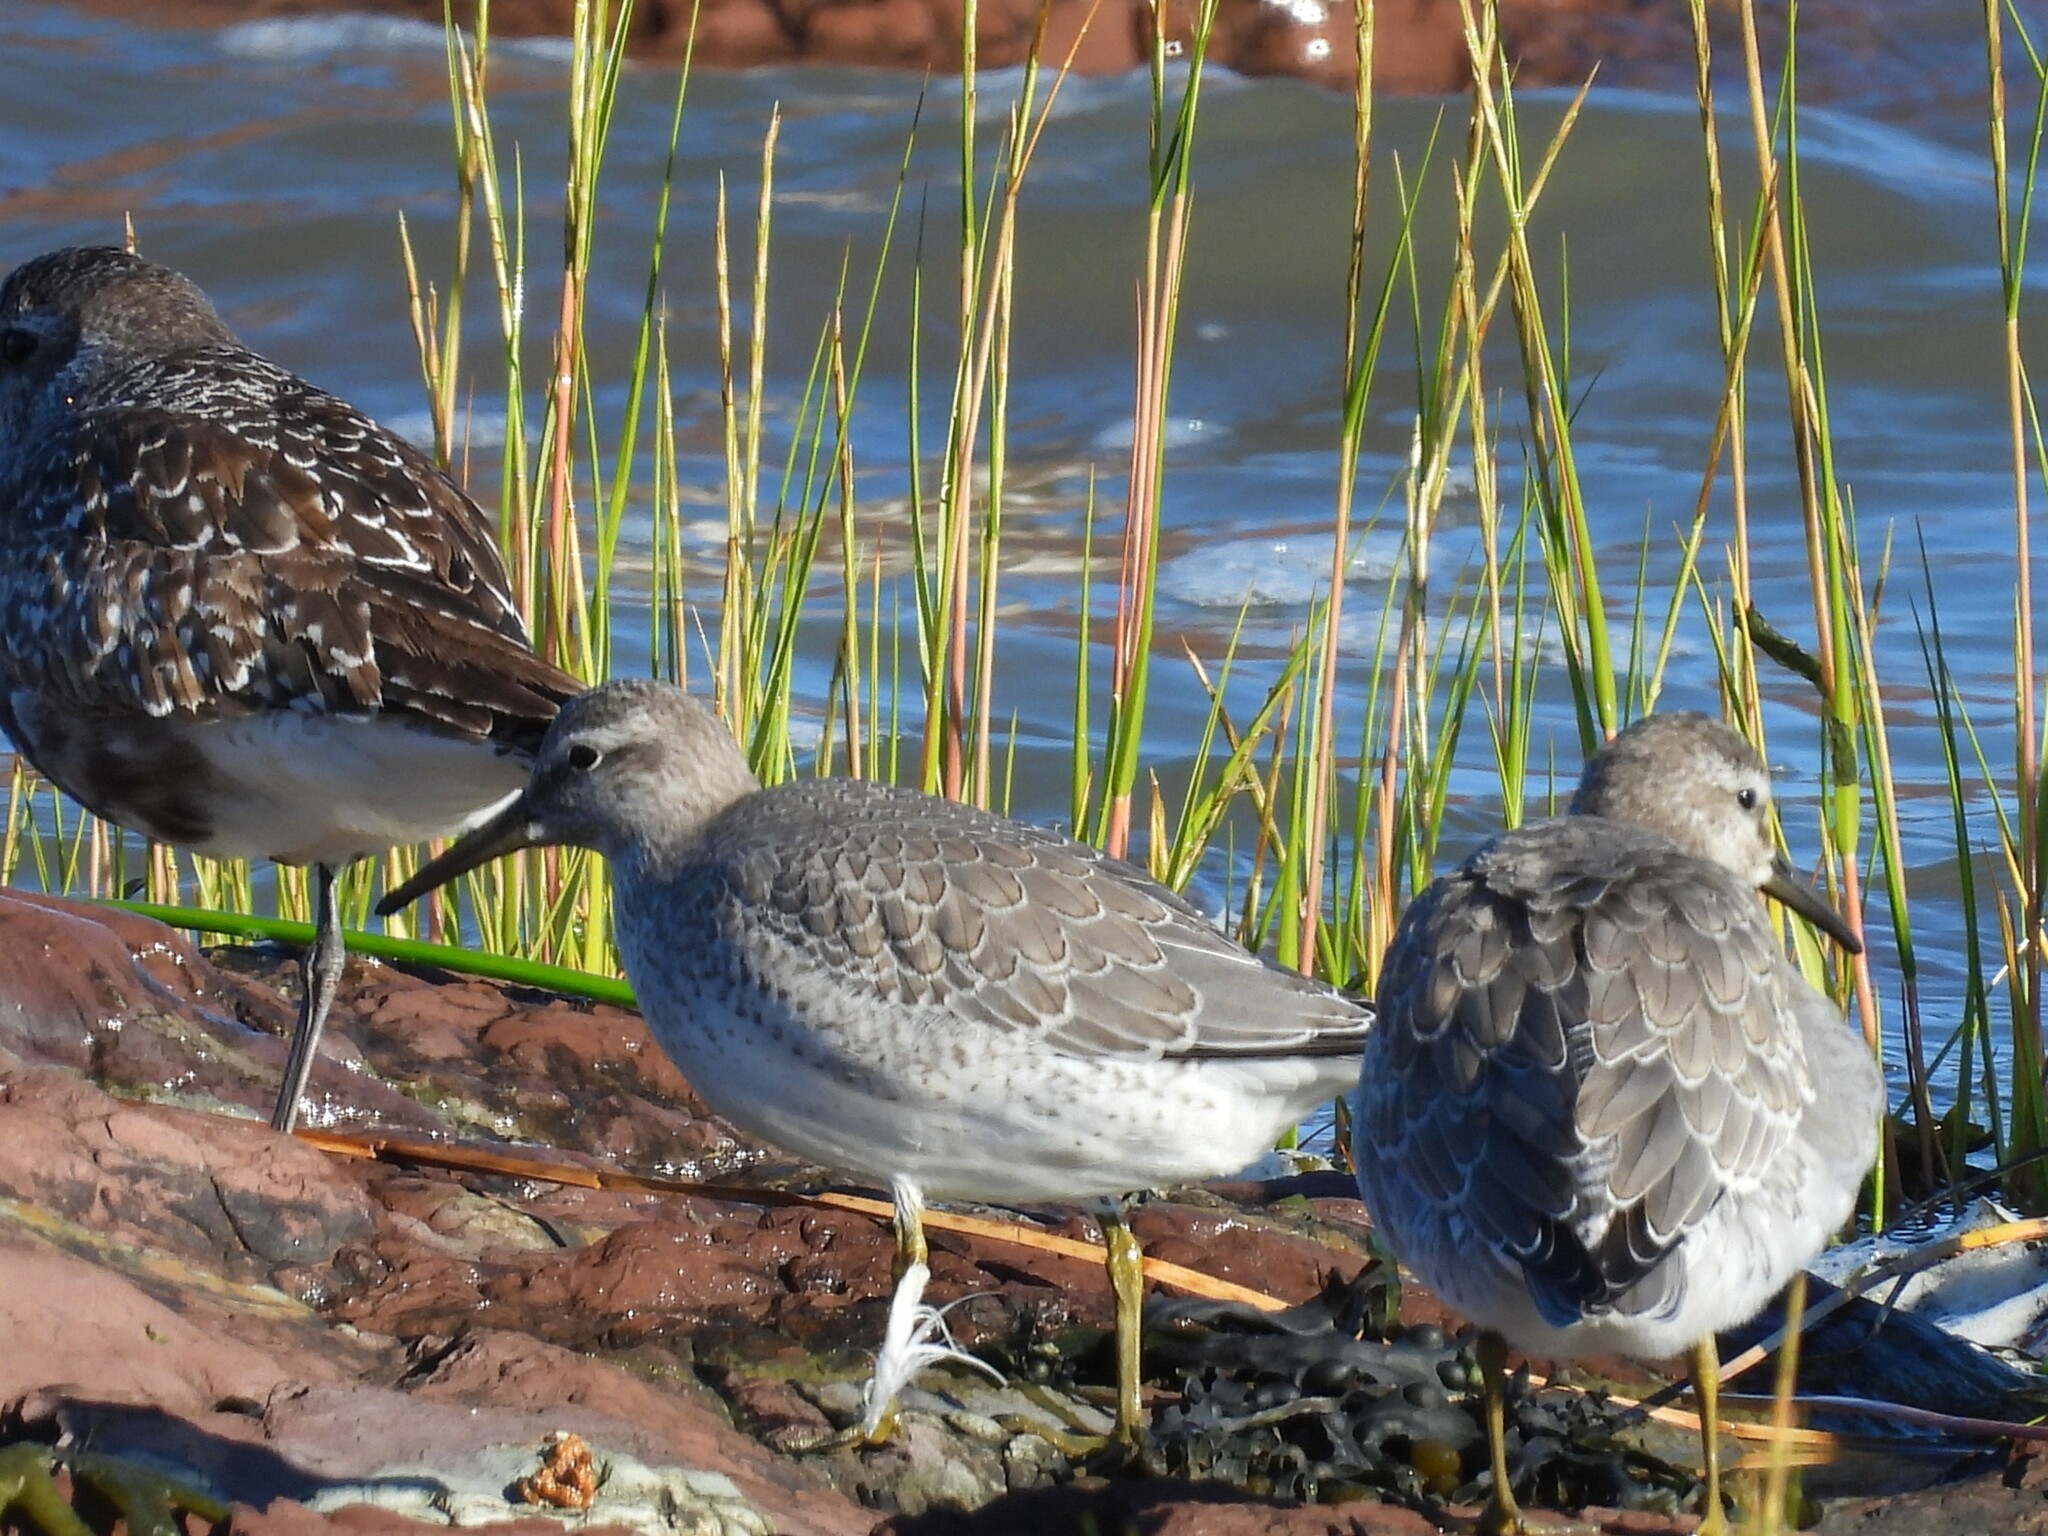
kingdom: Animalia
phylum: Chordata
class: Aves
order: Charadriiformes
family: Scolopacidae
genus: Calidris
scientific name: Calidris canutus
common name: Red knot
